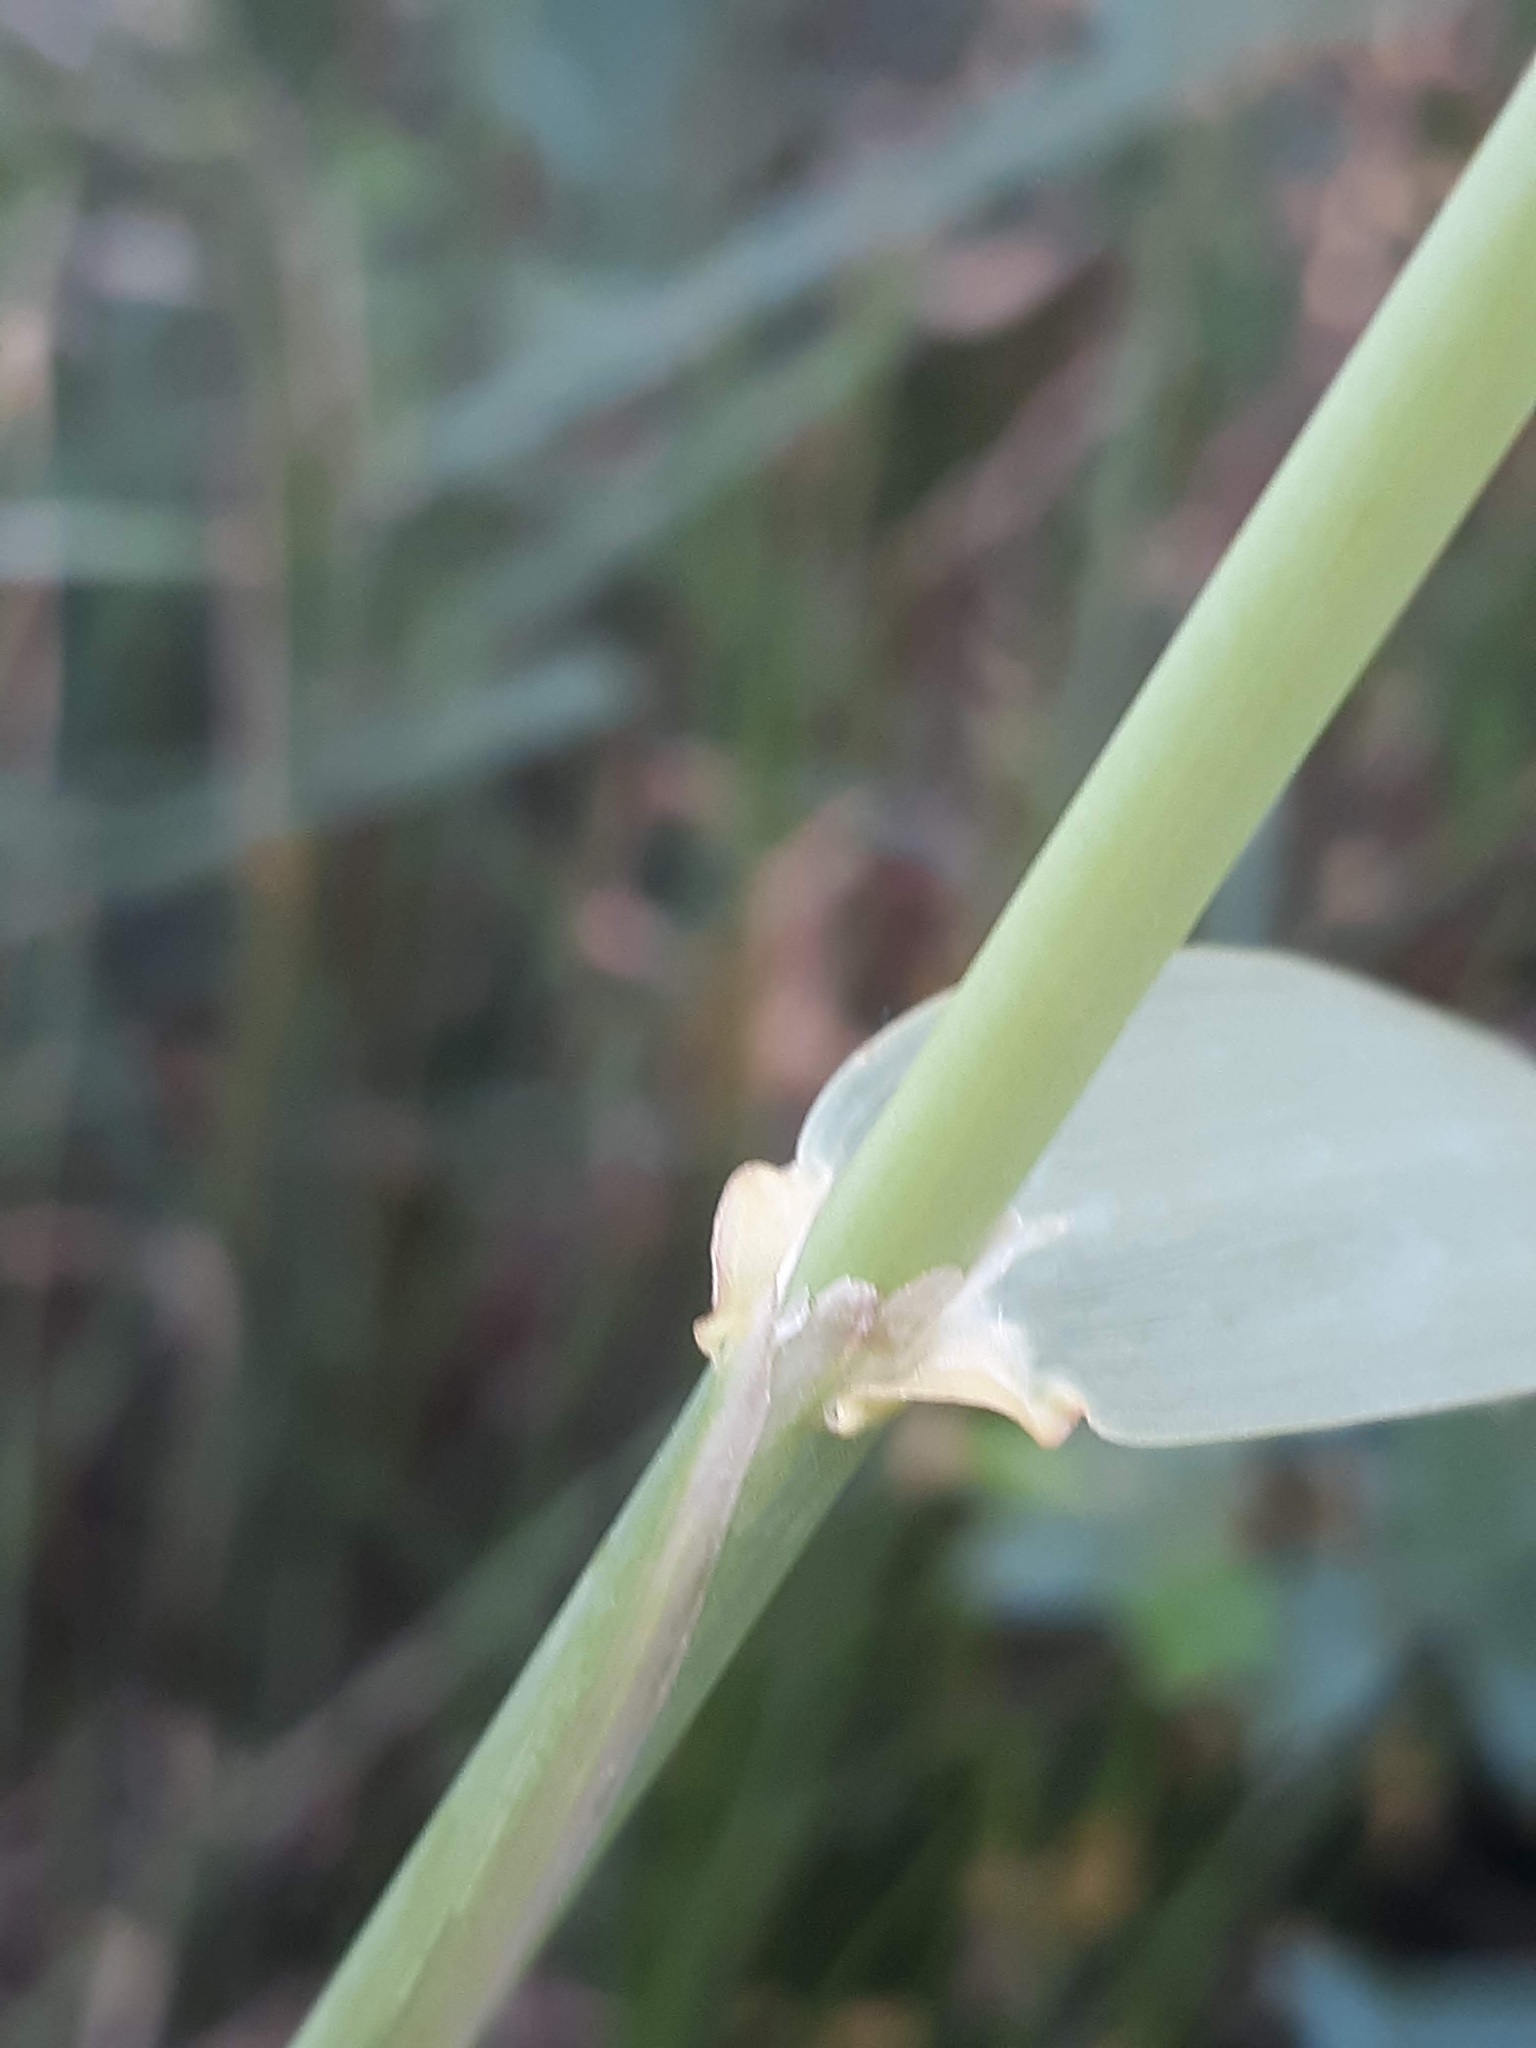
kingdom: Plantae
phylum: Tracheophyta
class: Liliopsida
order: Poales
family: Poaceae
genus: Phalaris
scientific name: Phalaris arundinacea
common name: Reed canary-grass
